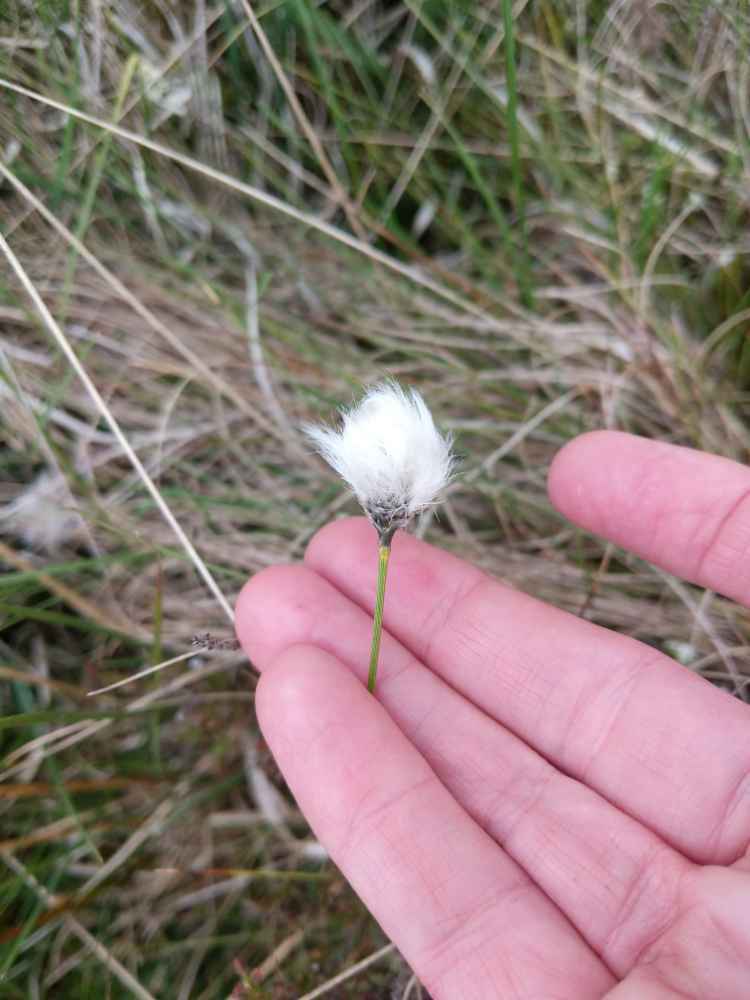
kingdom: Plantae
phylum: Tracheophyta
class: Liliopsida
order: Poales
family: Cyperaceae
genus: Eriophorum
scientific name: Eriophorum vaginatum
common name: Hare's-tail cottongrass
